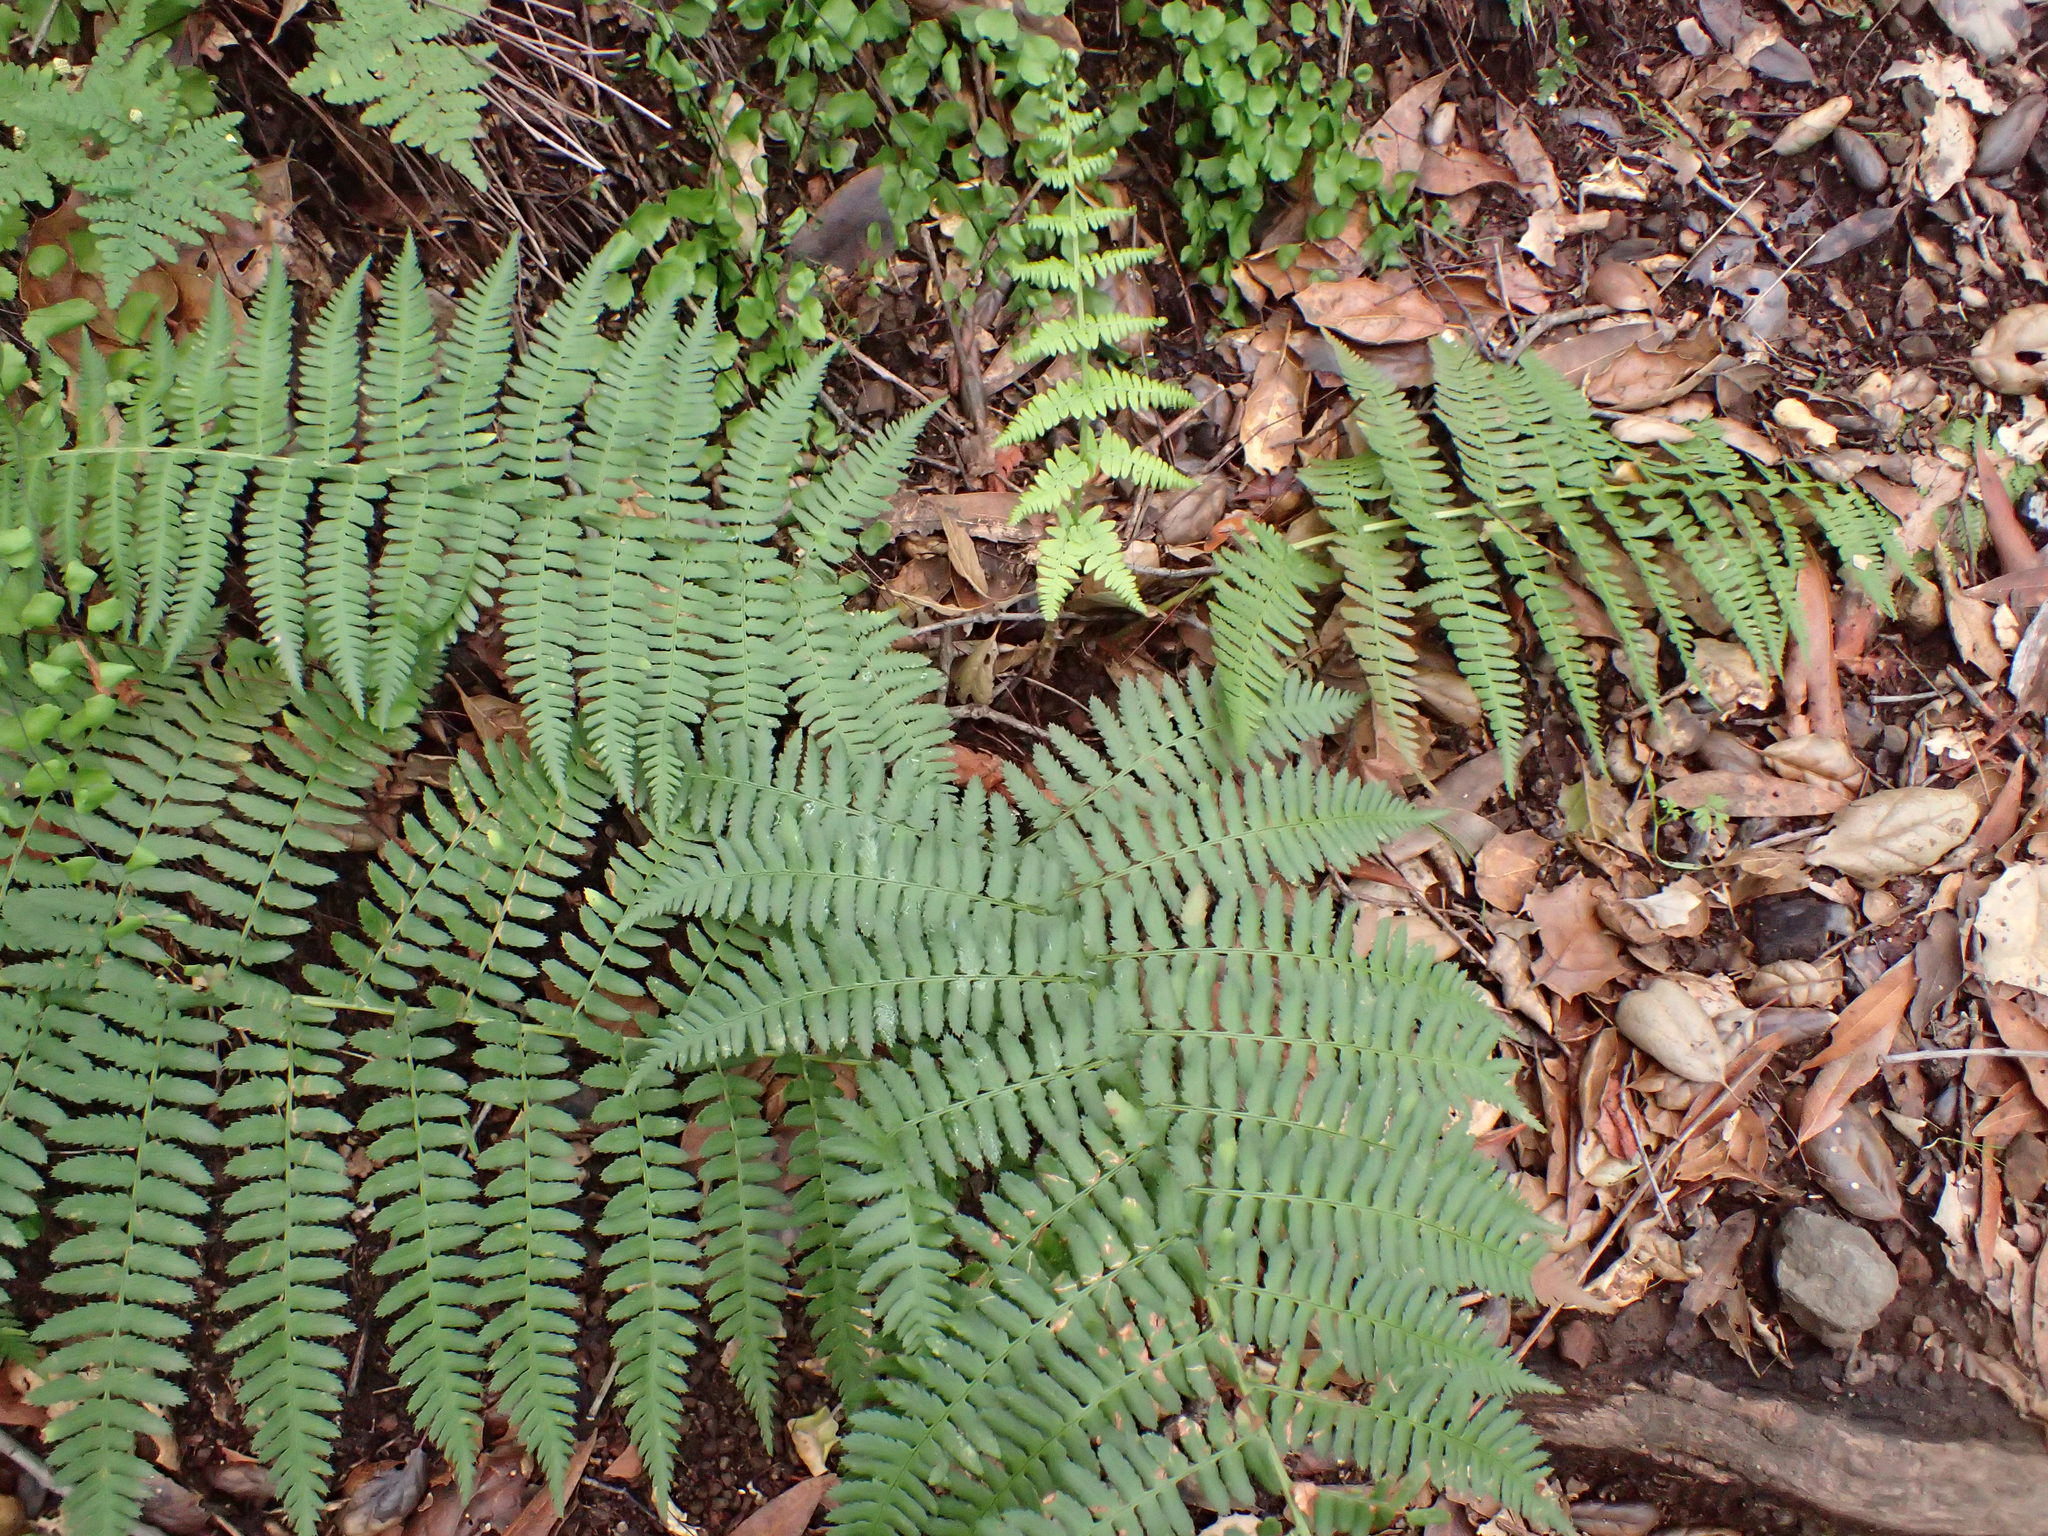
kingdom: Plantae
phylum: Tracheophyta
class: Polypodiopsida
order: Polypodiales
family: Dryopteridaceae
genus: Dryopteris
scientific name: Dryopteris arguta
